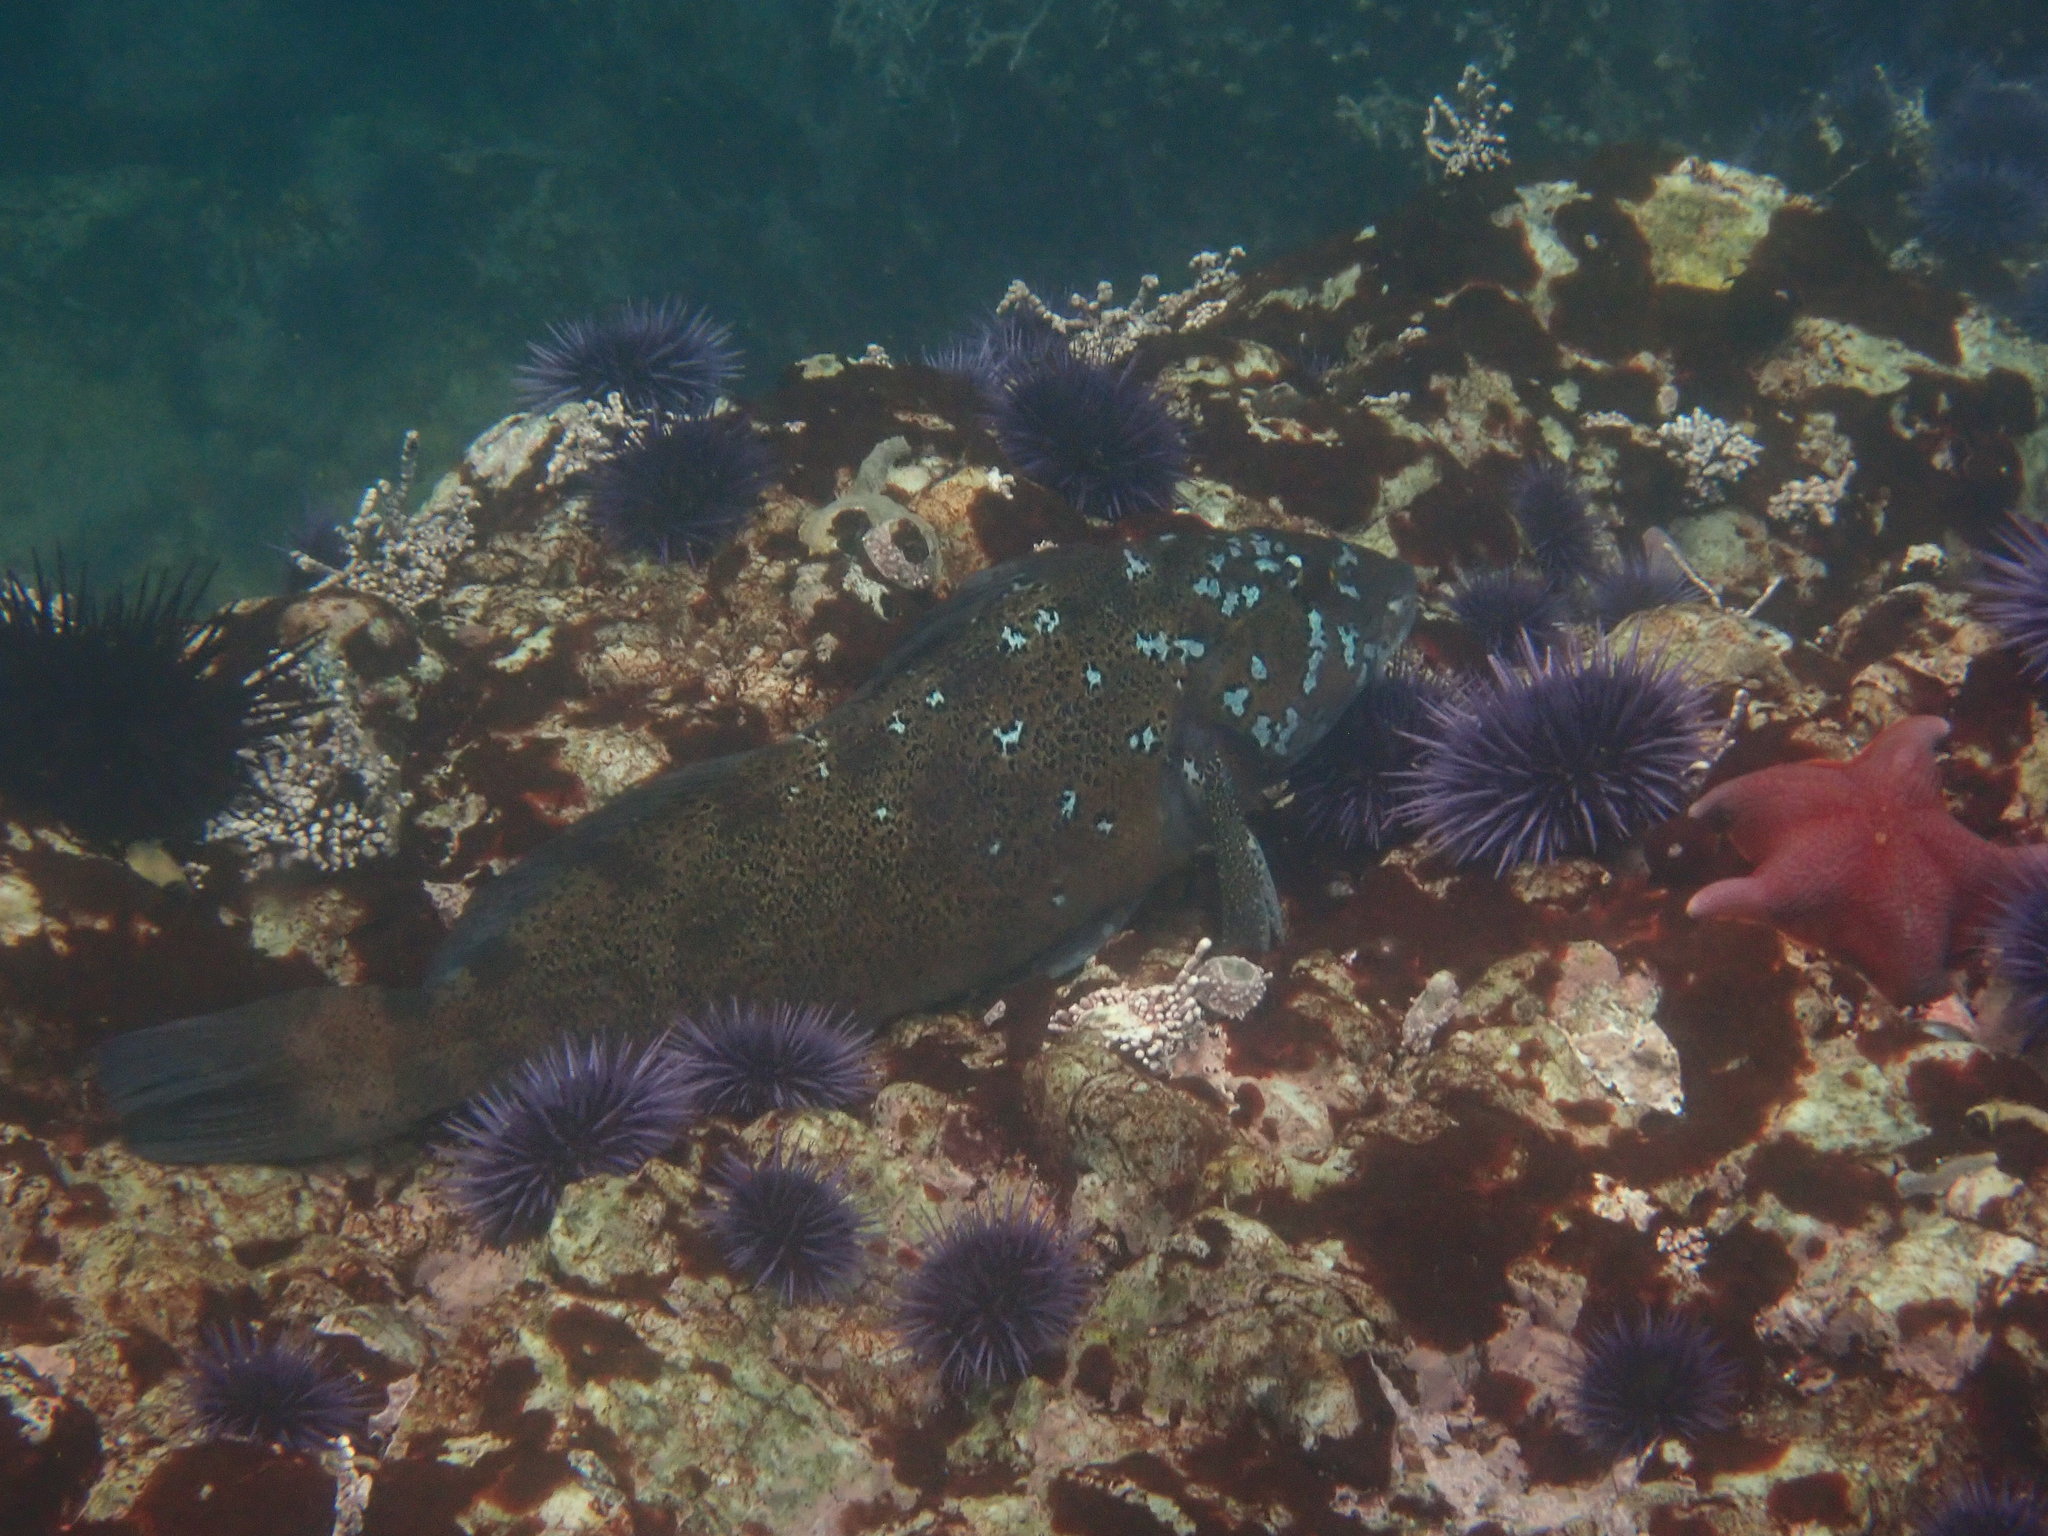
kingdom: Animalia
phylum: Chordata
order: Scorpaeniformes
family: Hexagrammidae
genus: Hexagrammos
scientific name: Hexagrammos decagrammus
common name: Kelp greenling
